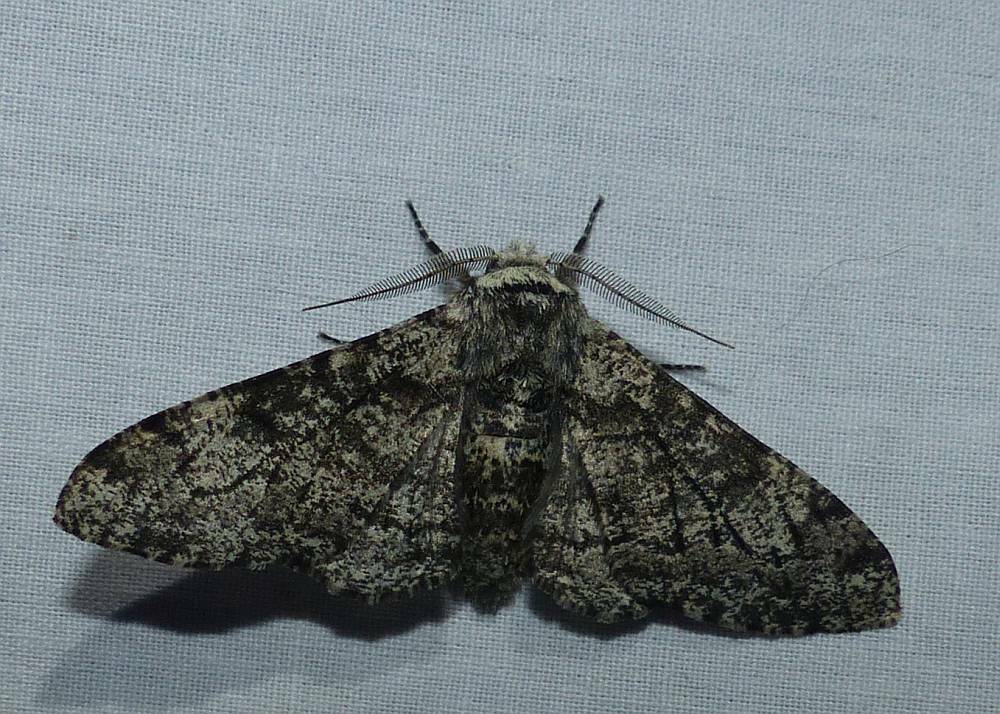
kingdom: Animalia
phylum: Arthropoda
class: Insecta
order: Lepidoptera
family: Geometridae
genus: Biston
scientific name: Biston betularia
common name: Peppered moth
